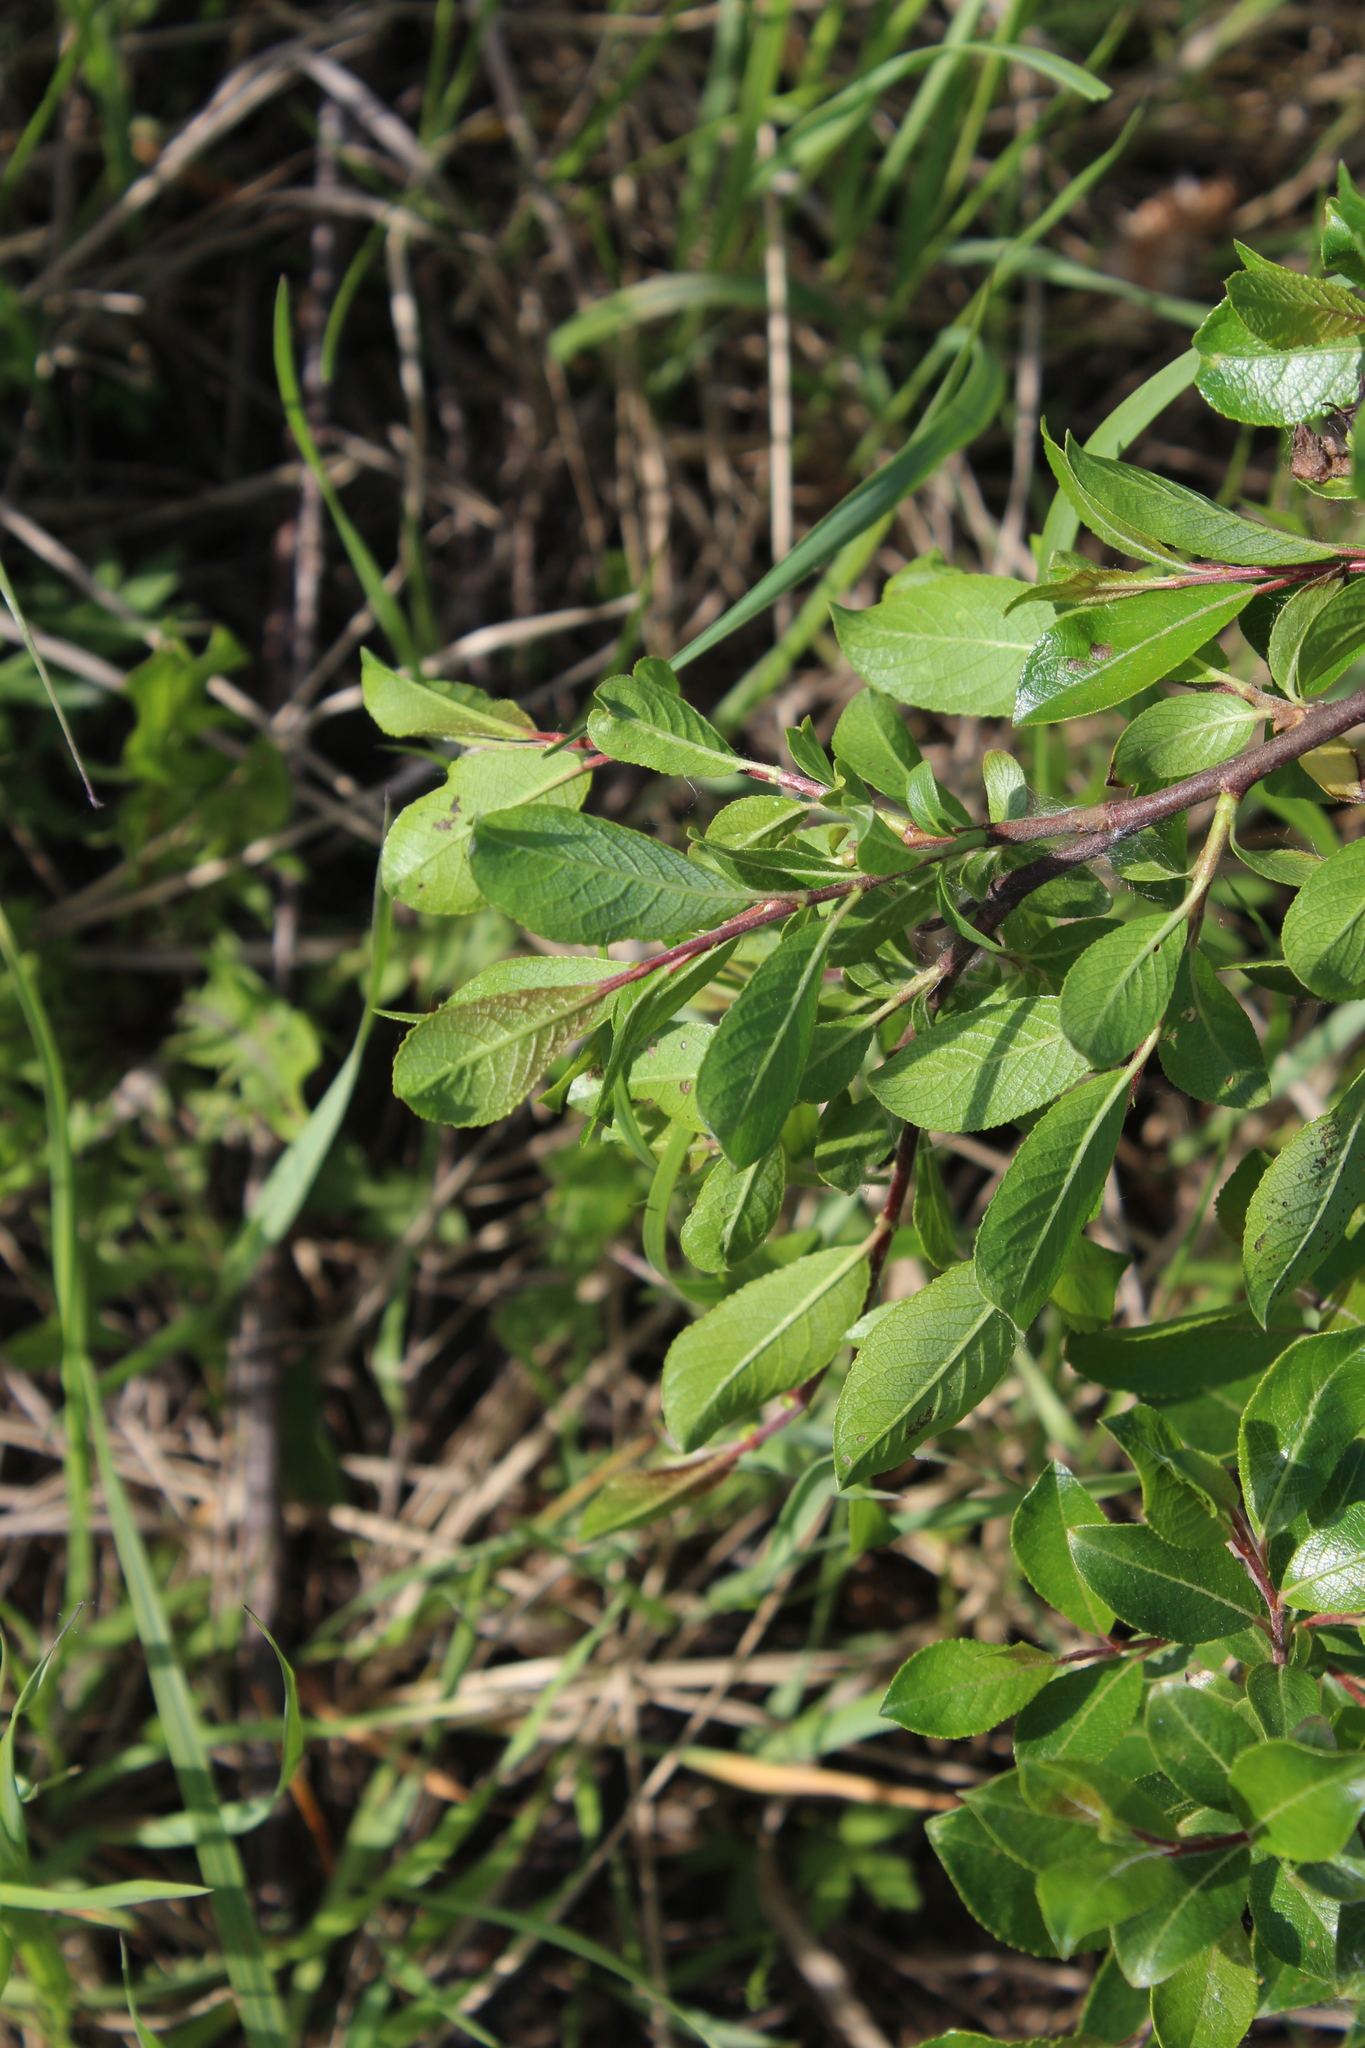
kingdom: Plantae
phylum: Tracheophyta
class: Magnoliopsida
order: Malpighiales
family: Salicaceae
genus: Salix
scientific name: Salix myrsinifolia
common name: Dark-leaved willow
